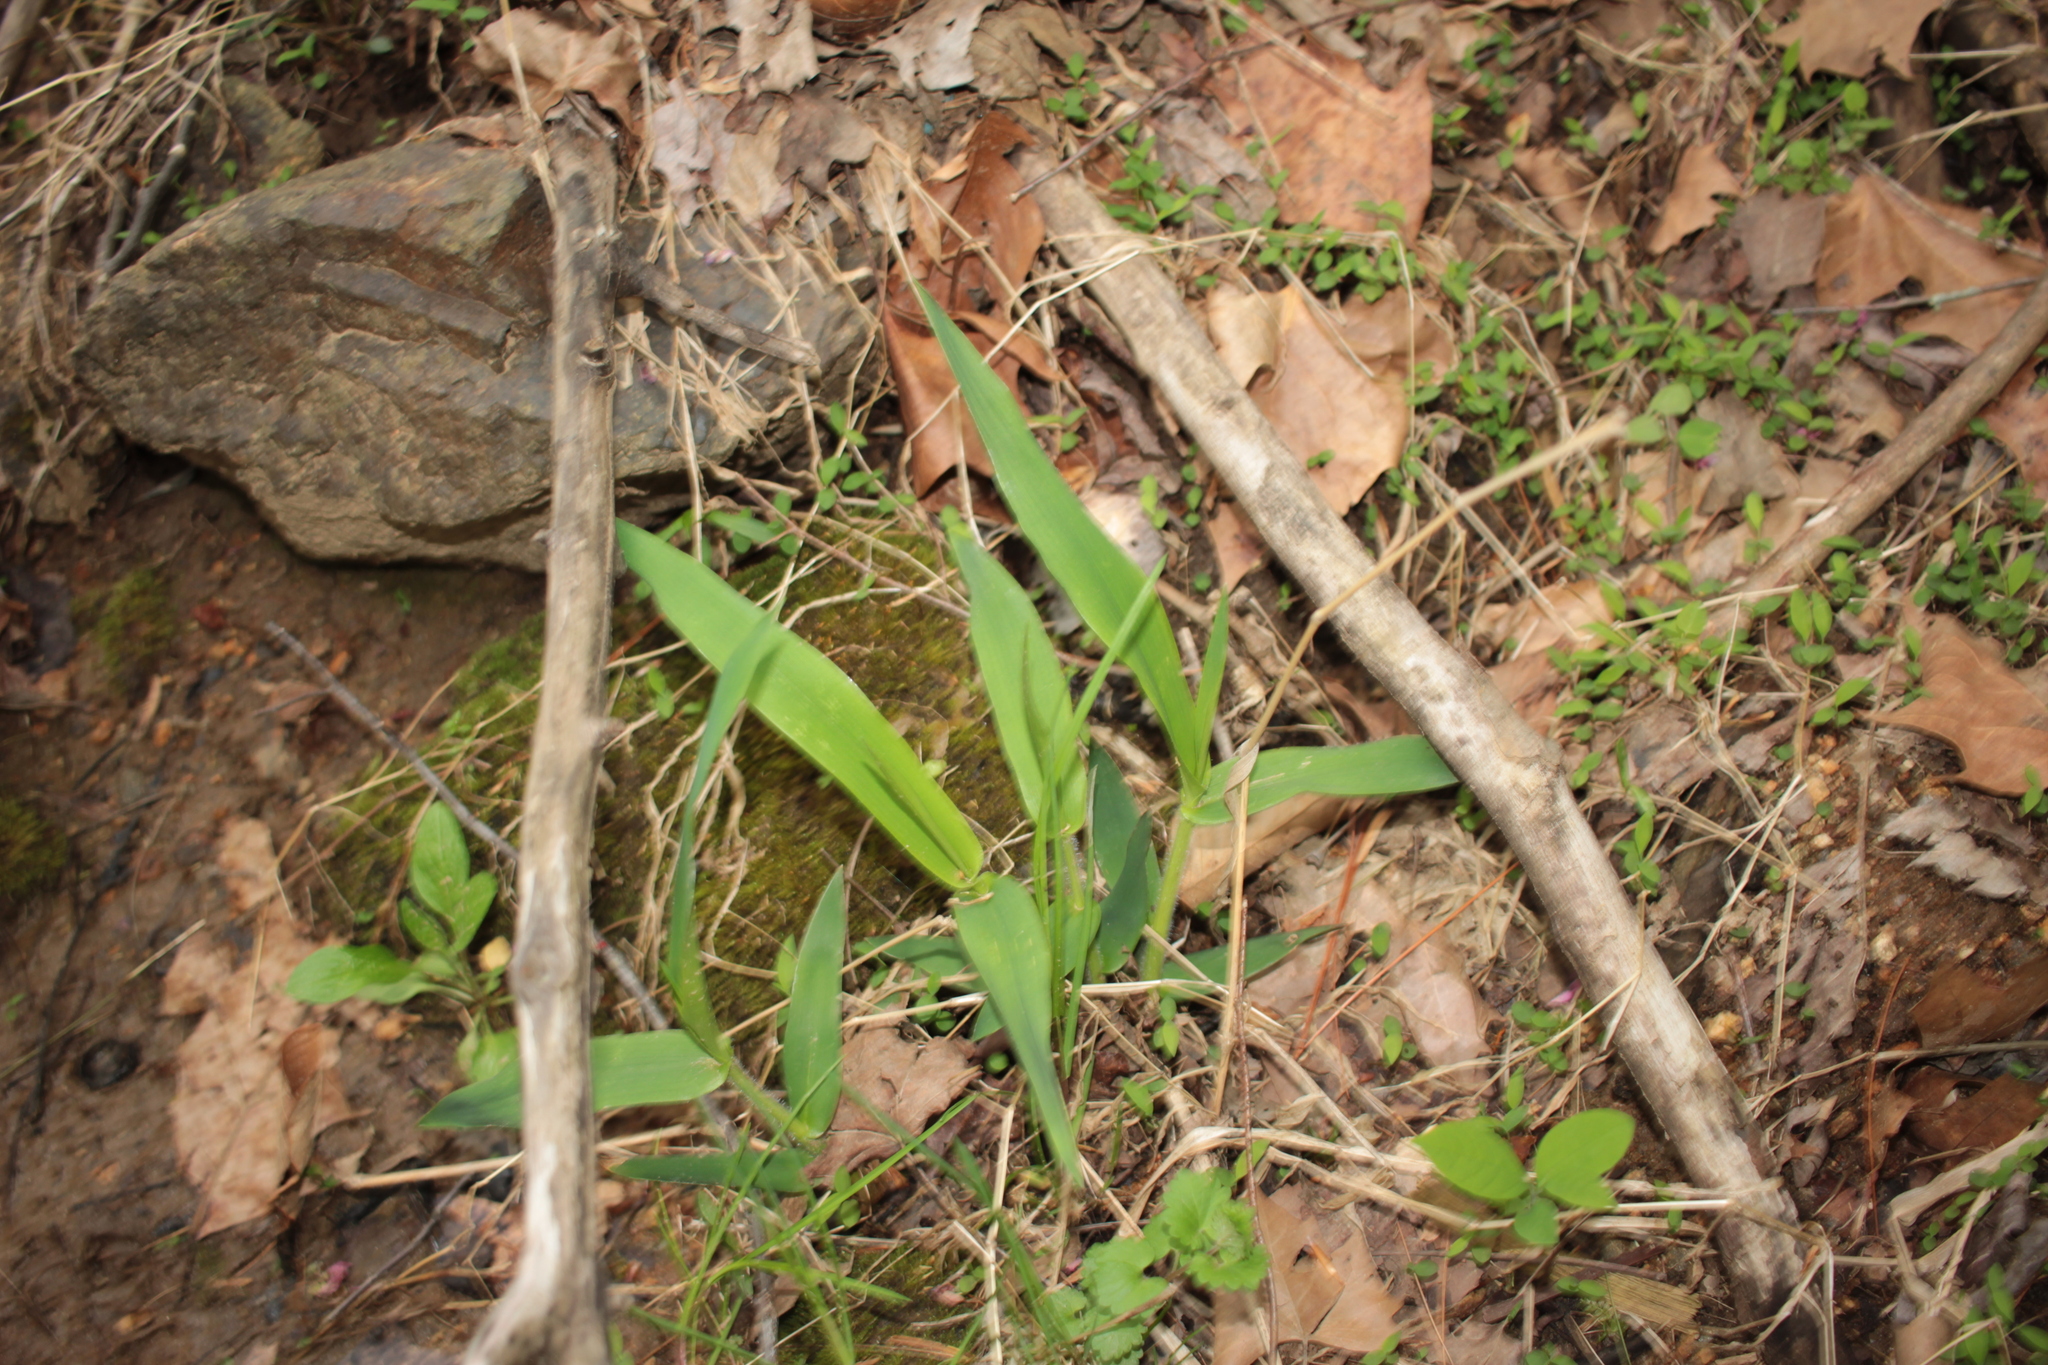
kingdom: Plantae
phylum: Tracheophyta
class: Liliopsida
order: Poales
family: Poaceae
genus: Dichanthelium
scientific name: Dichanthelium clandestinum
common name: Deer-tongue grass
